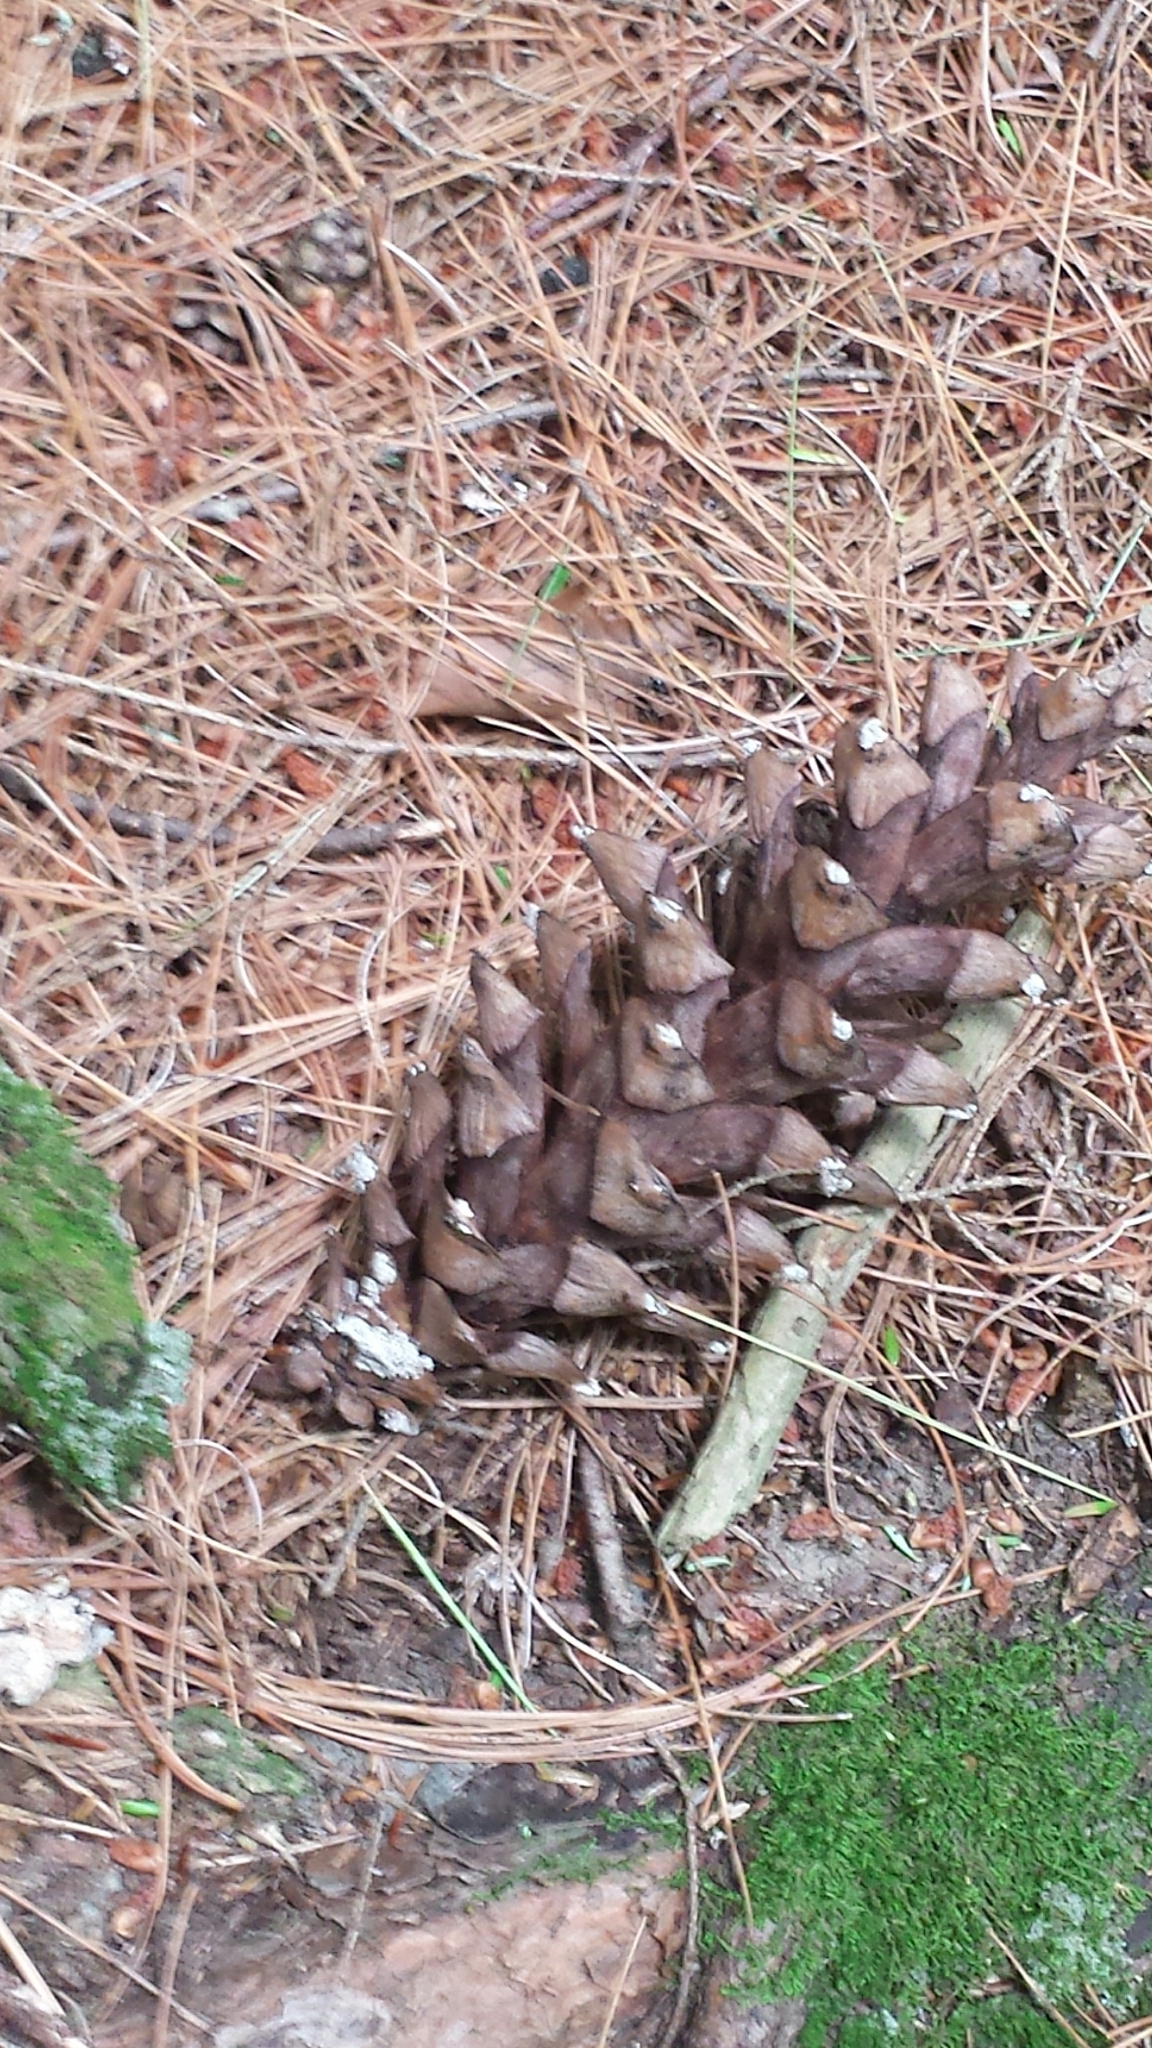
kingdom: Plantae
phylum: Tracheophyta
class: Pinopsida
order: Pinales
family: Pinaceae
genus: Pinus
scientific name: Pinus strobus
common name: Weymouth pine
